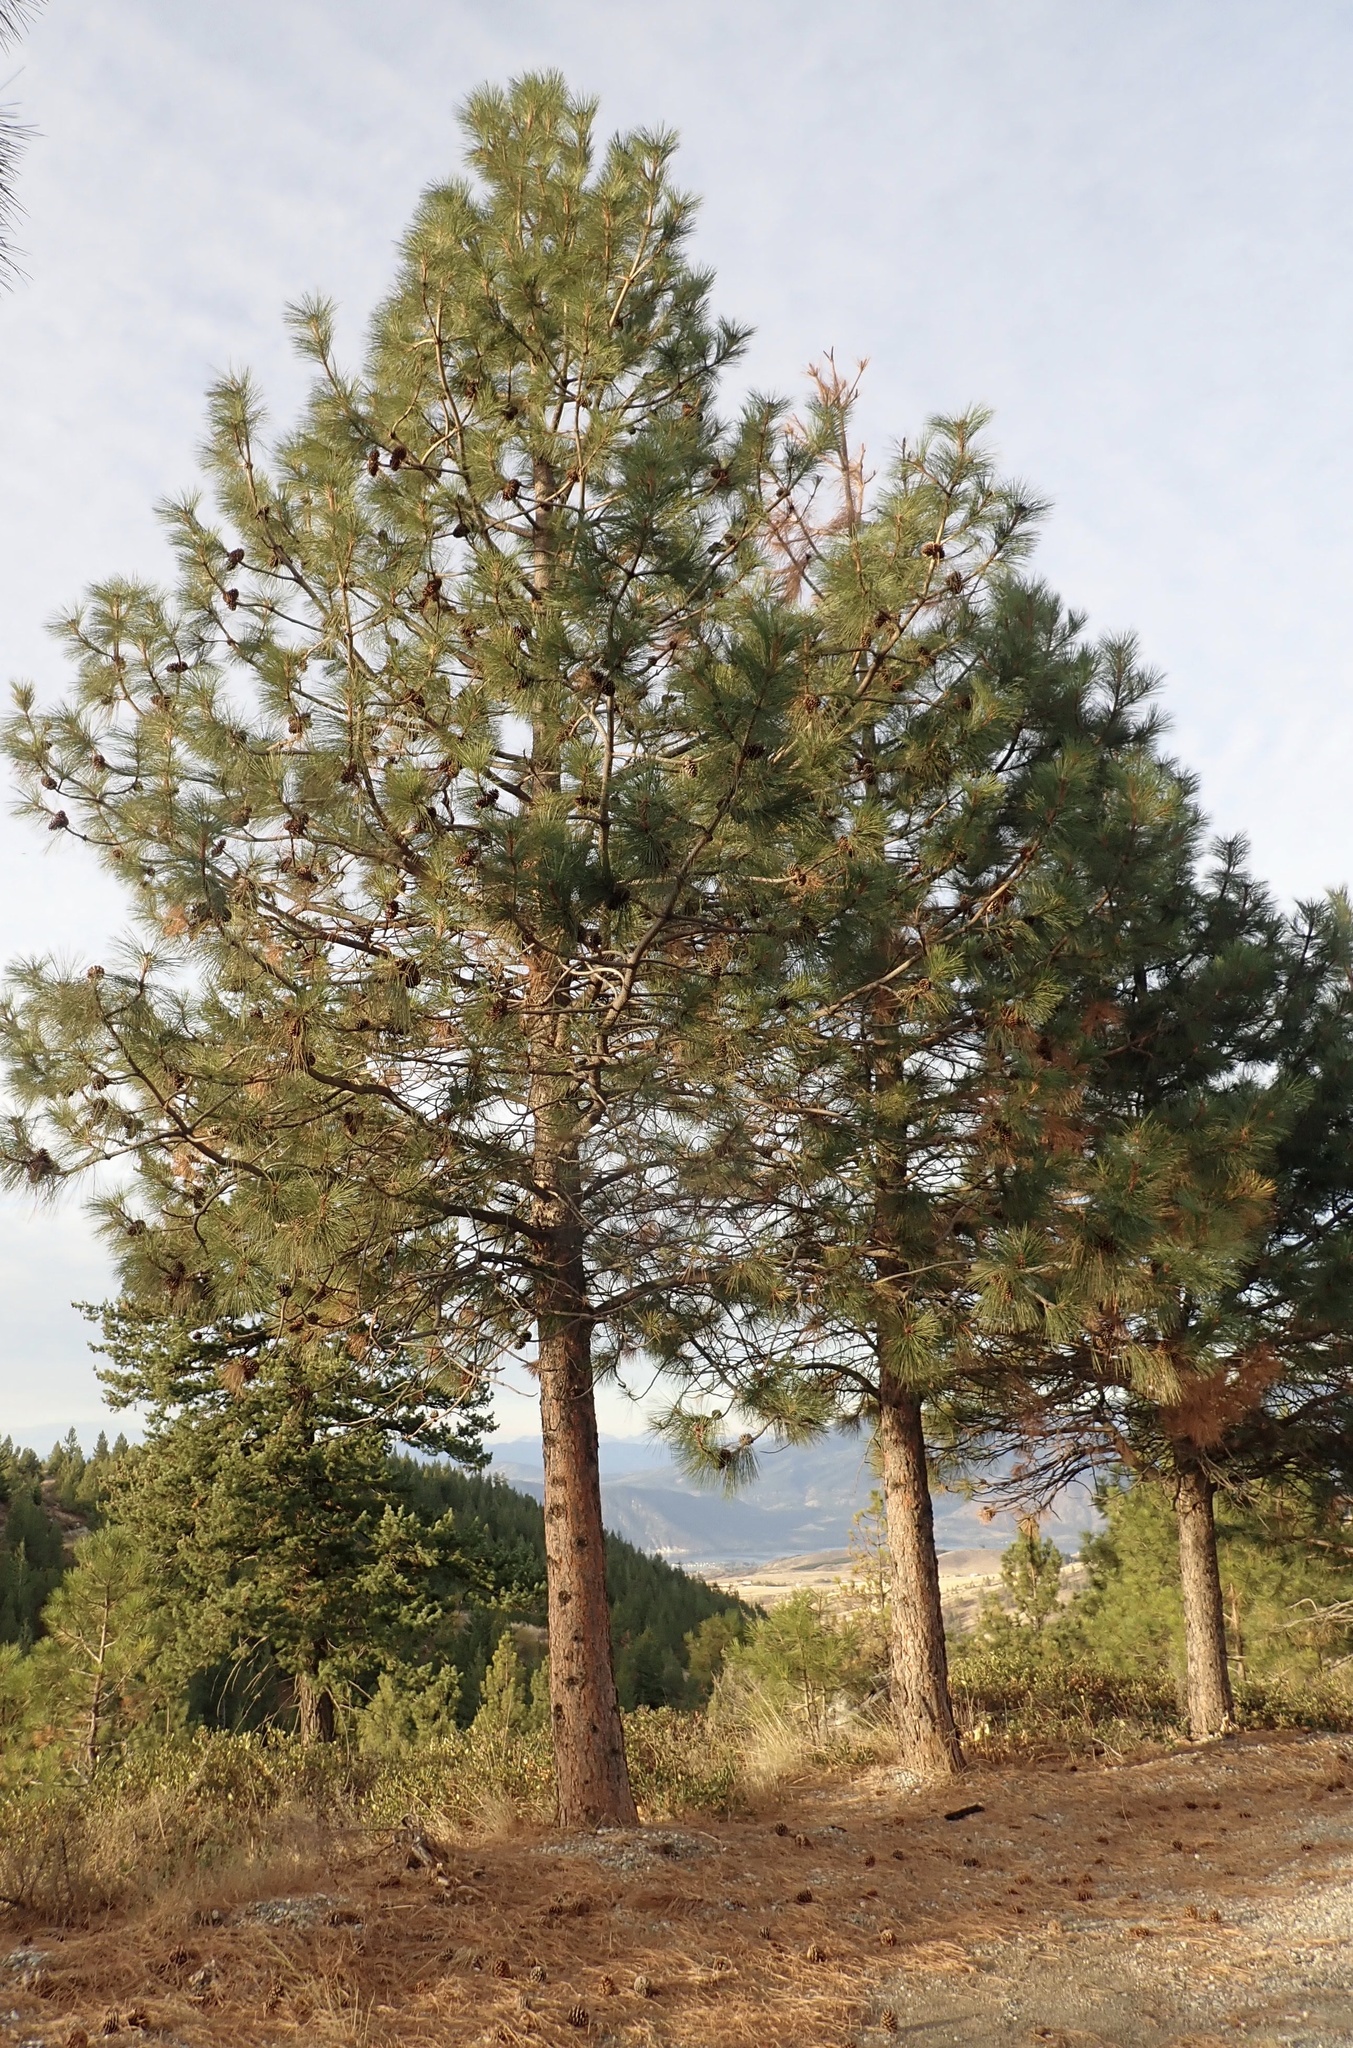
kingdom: Plantae
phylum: Tracheophyta
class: Pinopsida
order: Pinales
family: Pinaceae
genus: Pinus
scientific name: Pinus ponderosa
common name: Western yellow-pine
